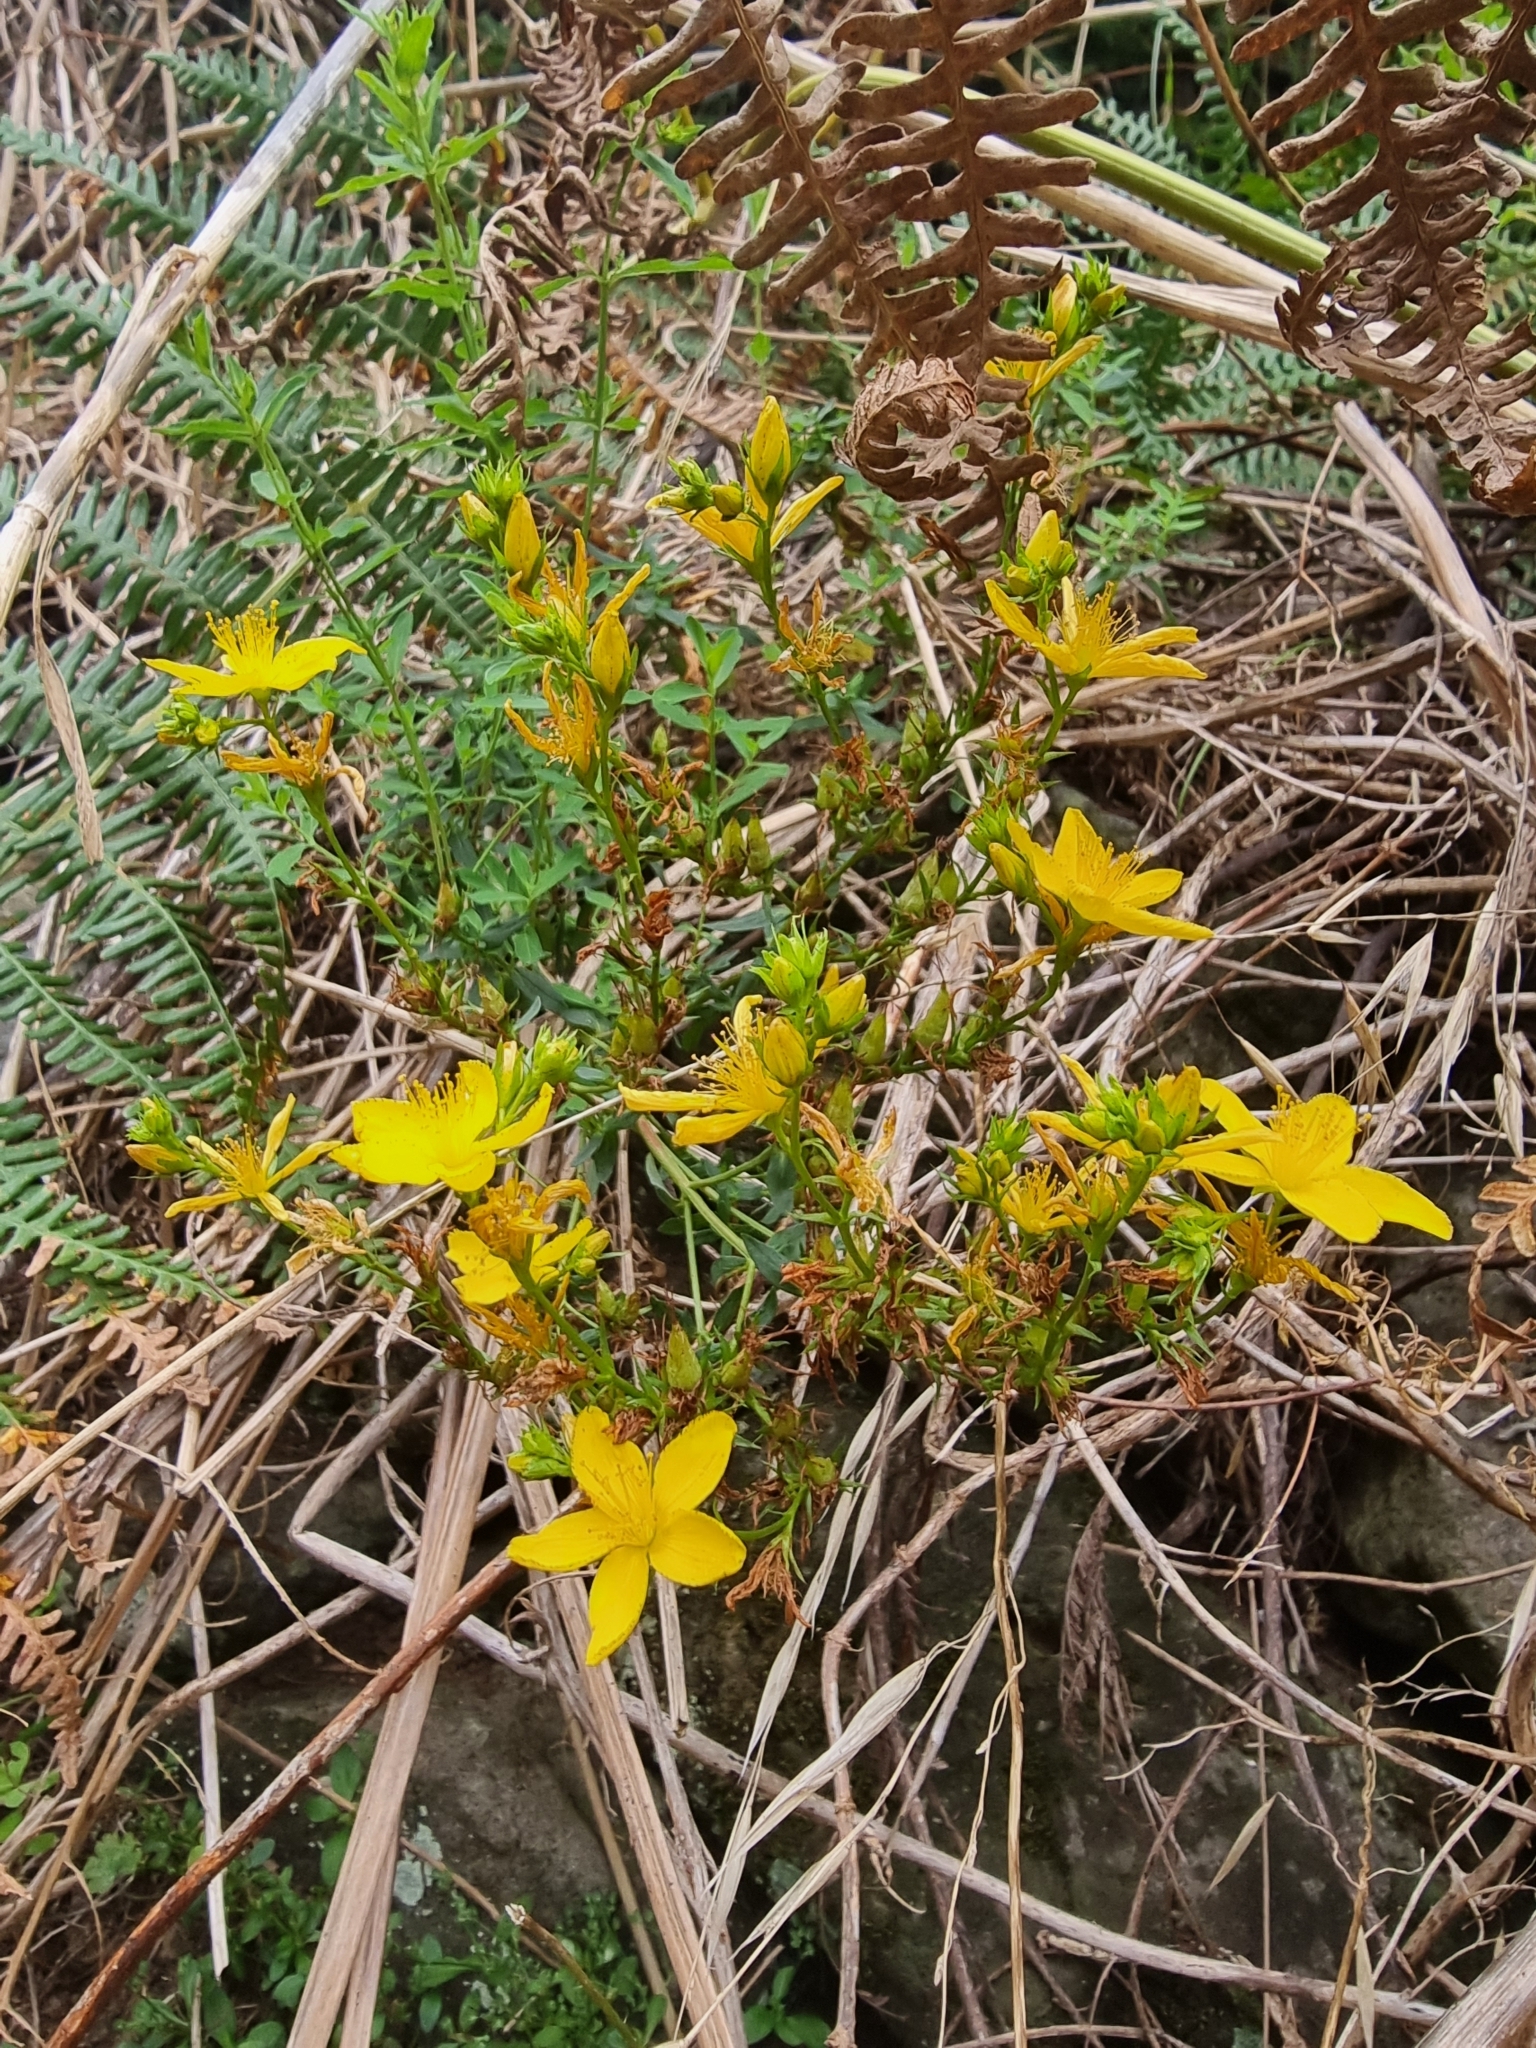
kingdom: Plantae
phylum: Tracheophyta
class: Magnoliopsida
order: Malpighiales
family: Hypericaceae
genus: Hypericum
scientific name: Hypericum perforatum
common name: Common st. johnswort
